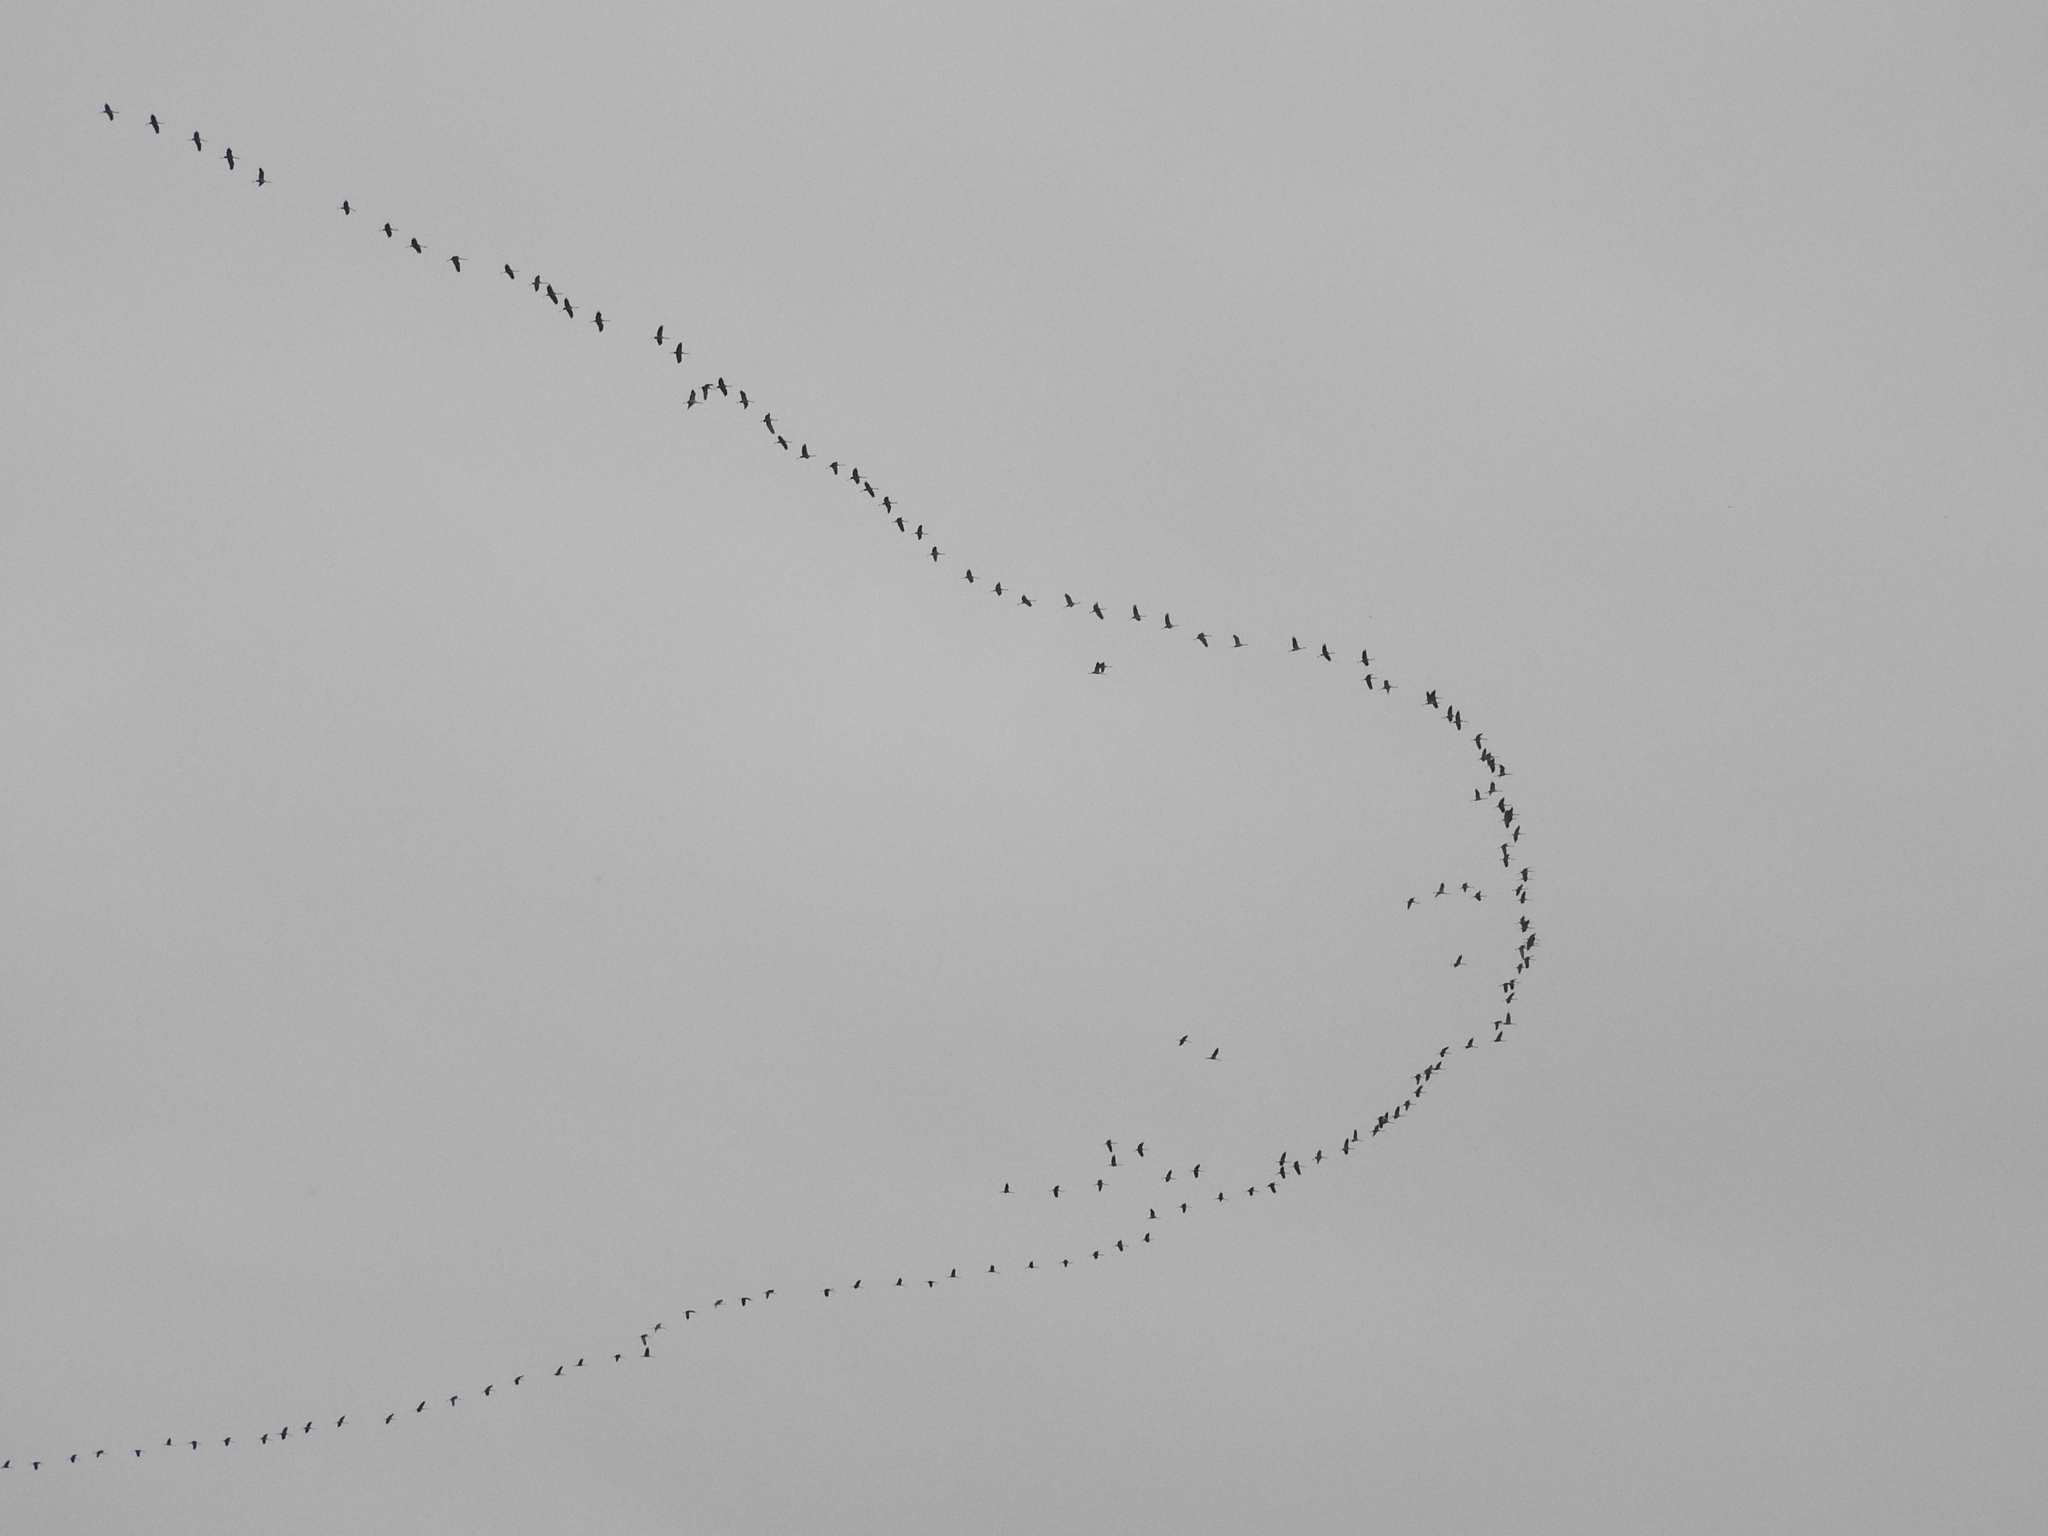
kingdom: Animalia
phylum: Chordata
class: Aves
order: Gruiformes
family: Gruidae
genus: Grus
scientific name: Grus grus
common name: Common crane
